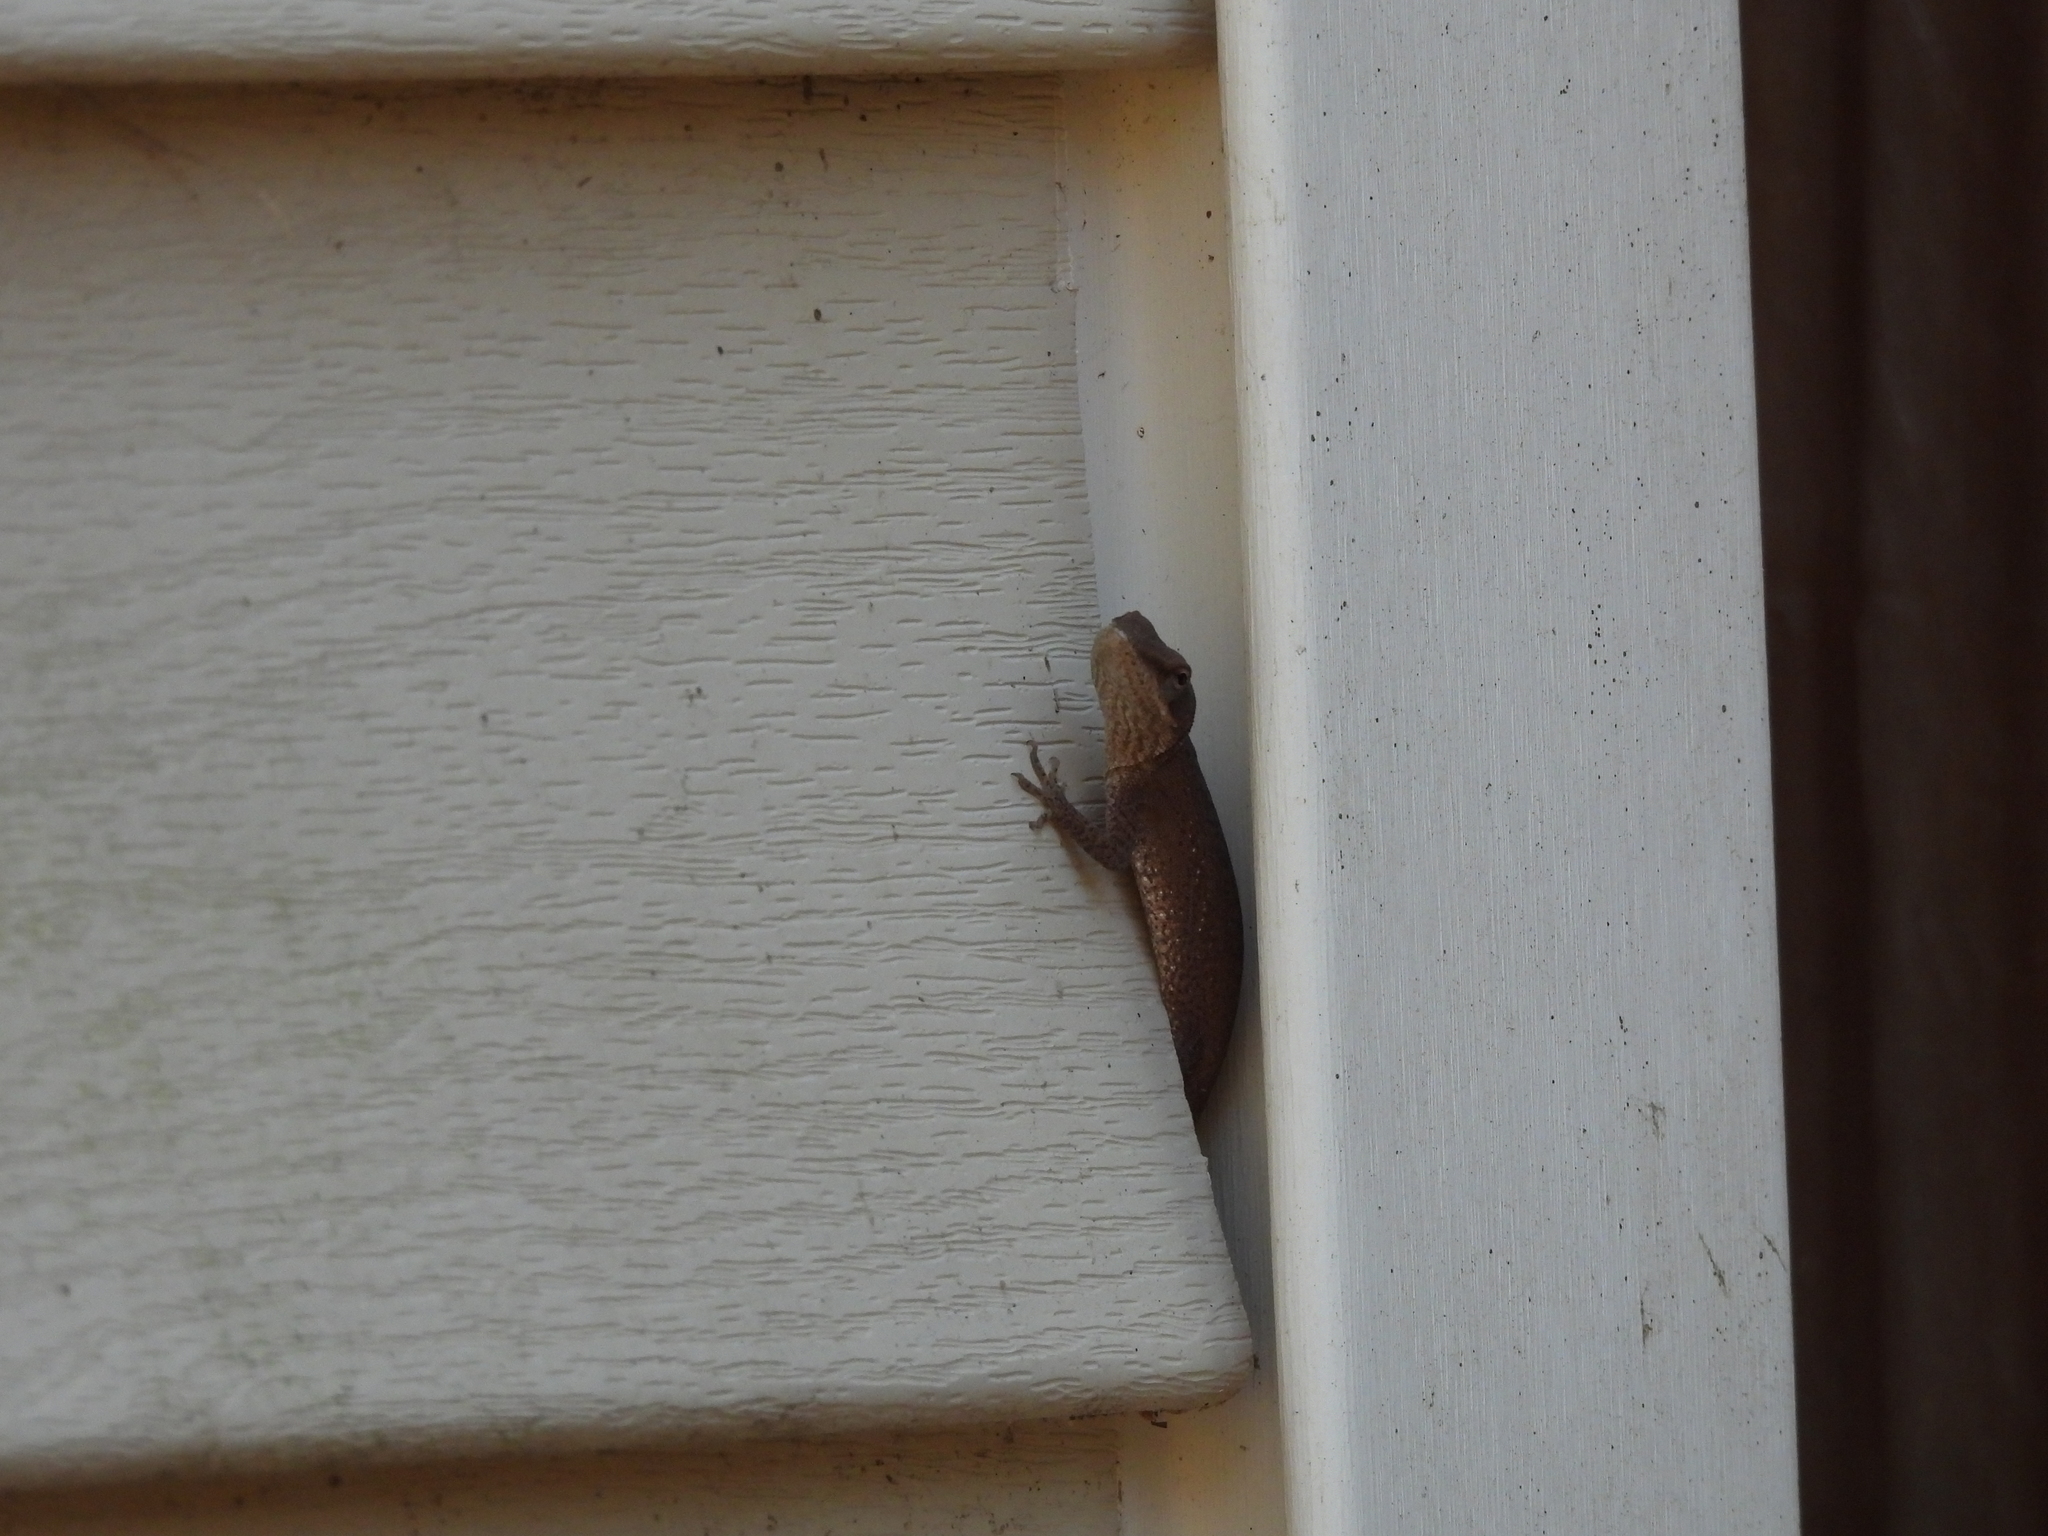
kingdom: Animalia
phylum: Chordata
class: Squamata
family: Dactyloidae
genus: Anolis
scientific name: Anolis carolinensis
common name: Green anole
